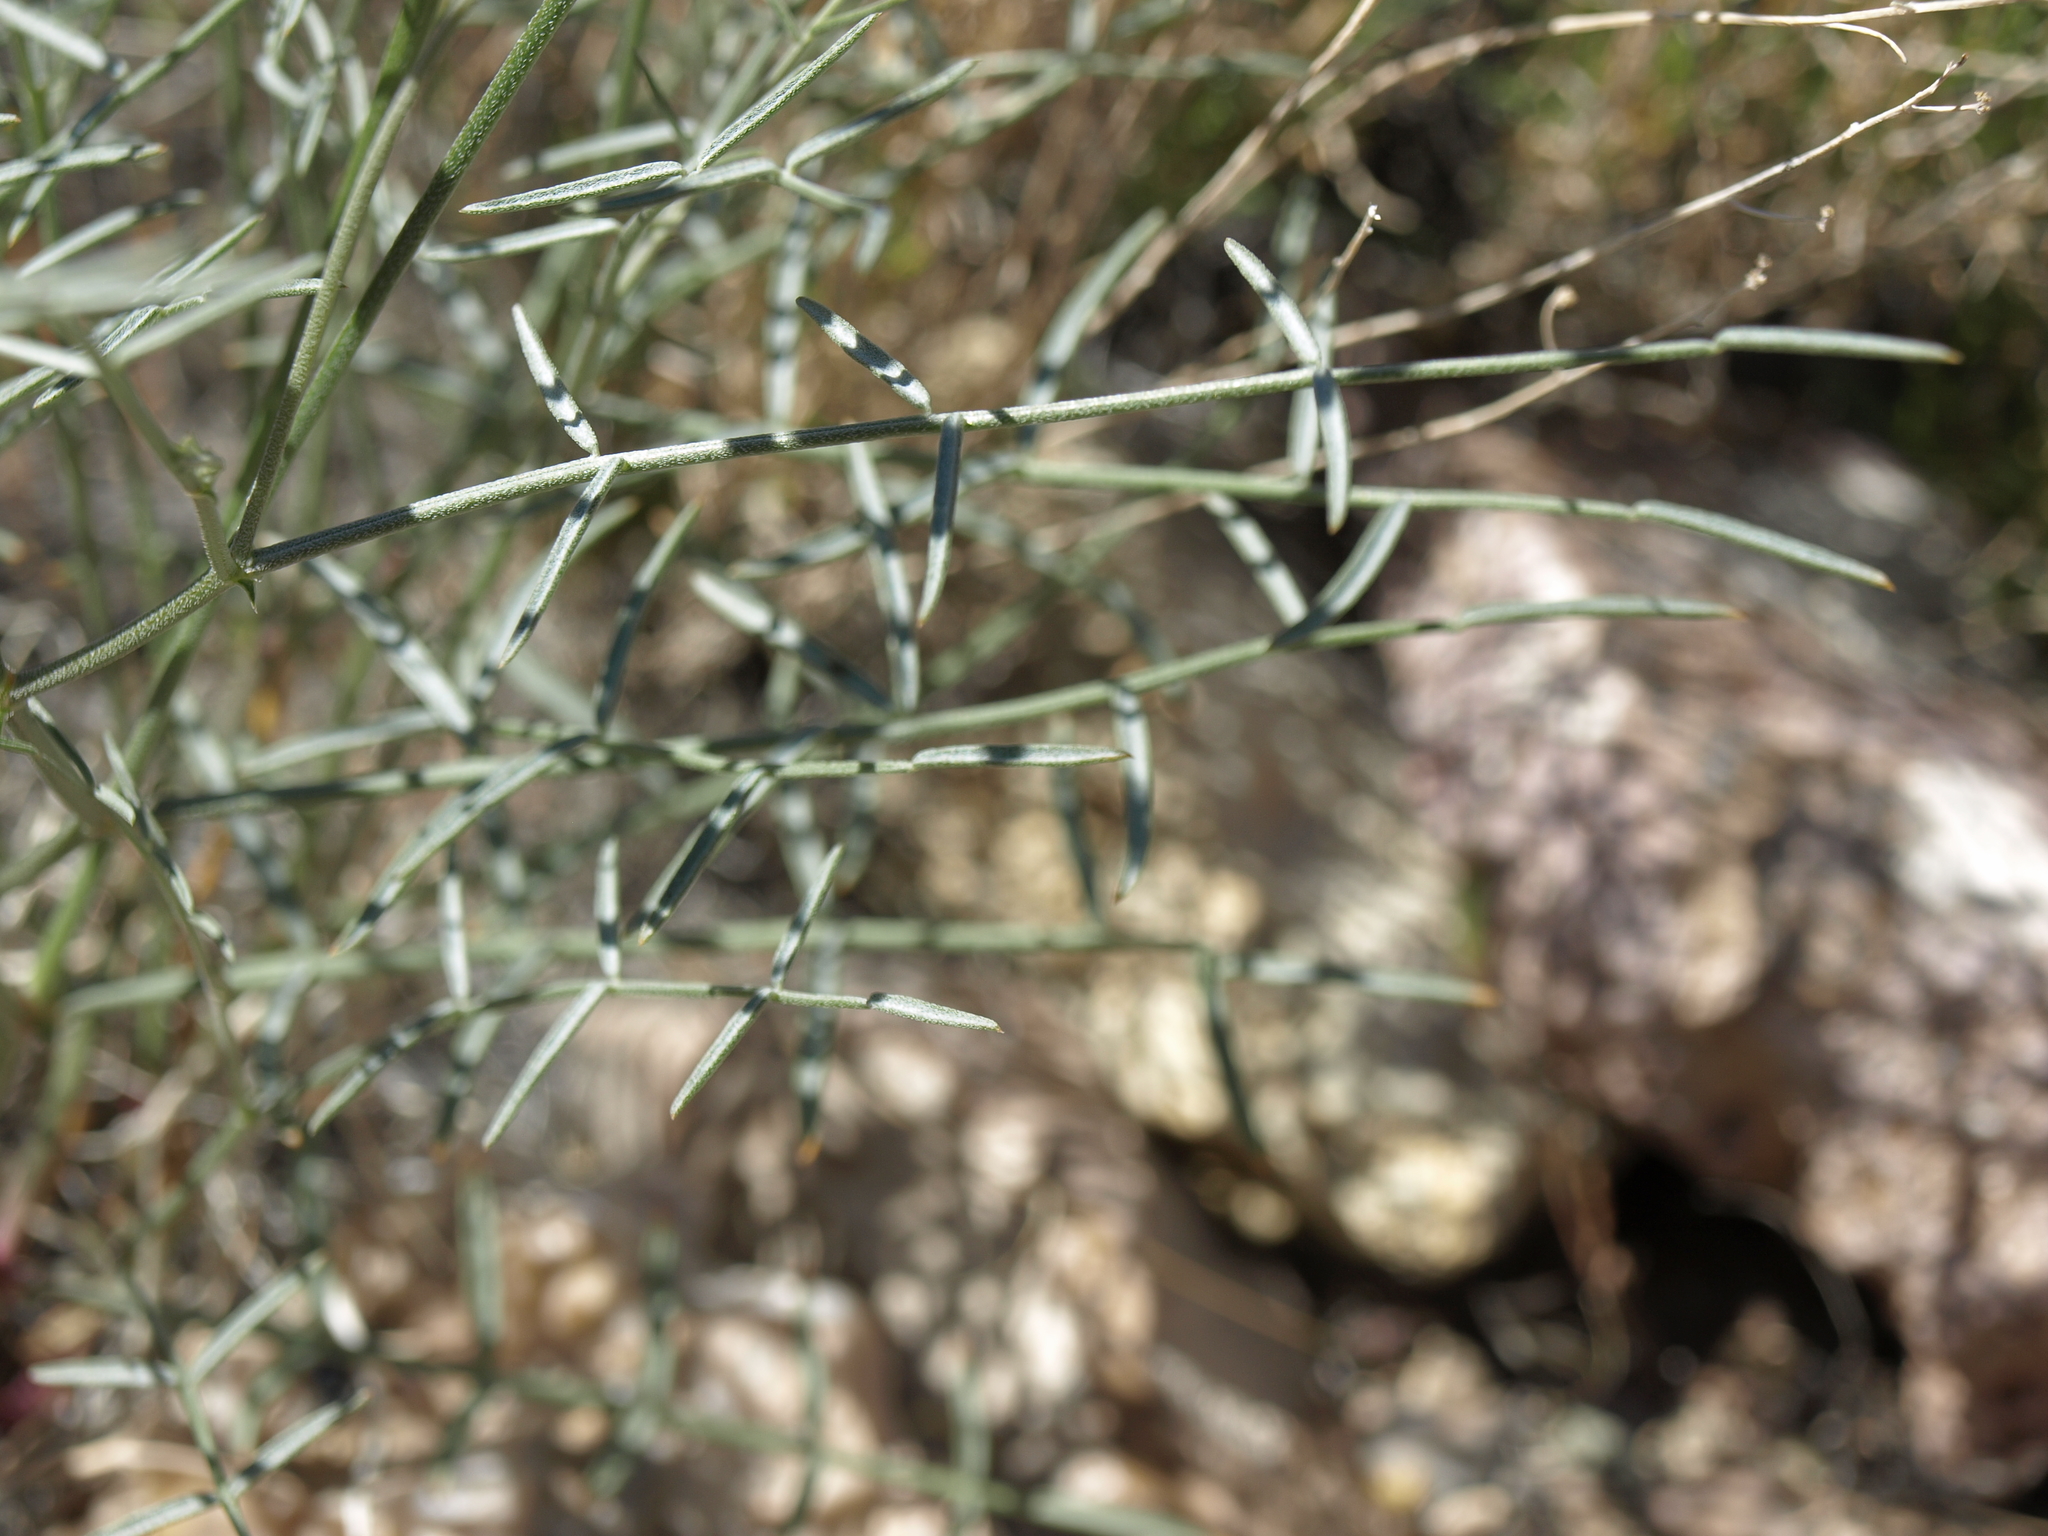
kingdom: Plantae
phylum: Tracheophyta
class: Magnoliopsida
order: Fabales
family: Fabaceae
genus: Astragalus
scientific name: Astragalus serenoi
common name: Naked milk-vetch
